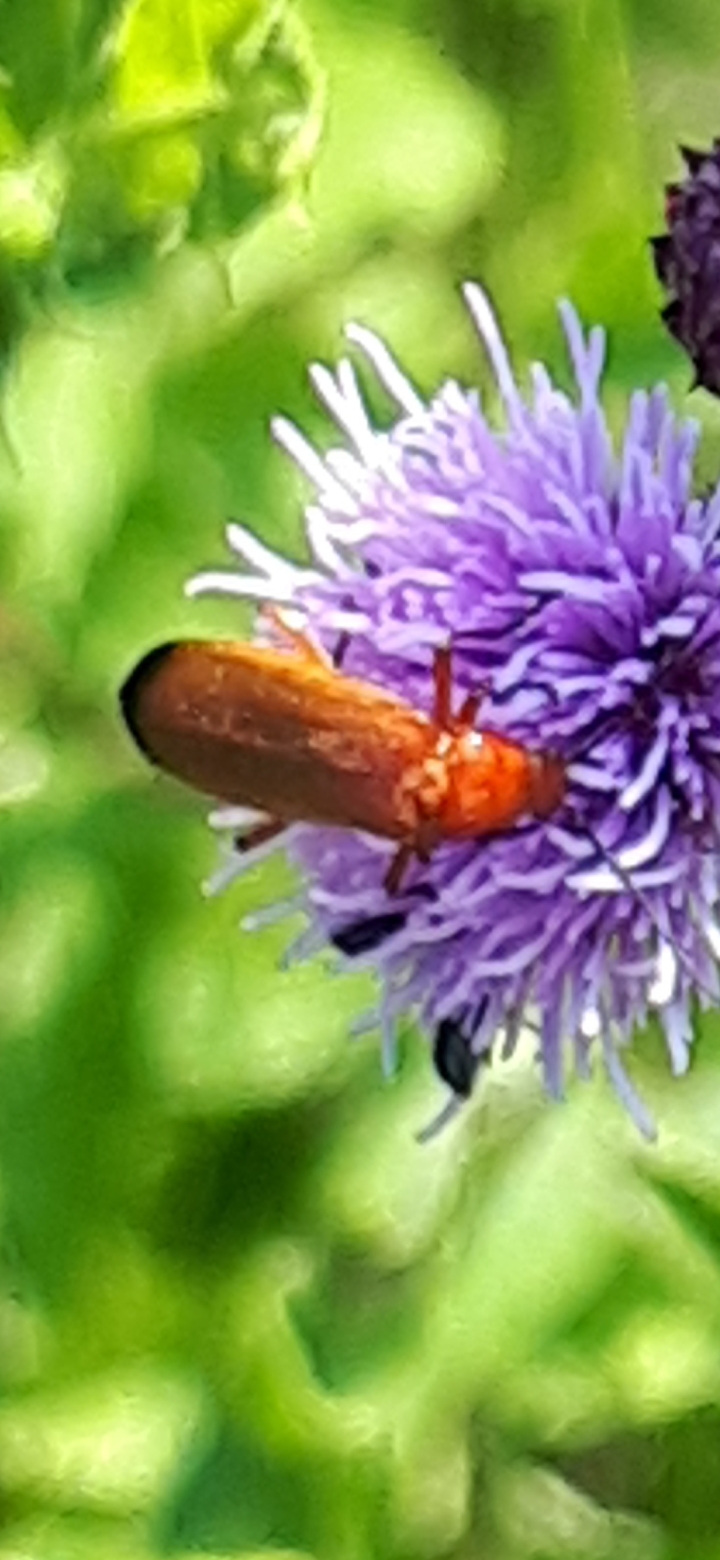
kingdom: Animalia
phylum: Arthropoda
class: Insecta
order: Coleoptera
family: Cantharidae
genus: Rhagonycha
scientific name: Rhagonycha fulva
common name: Common red soldier beetle
